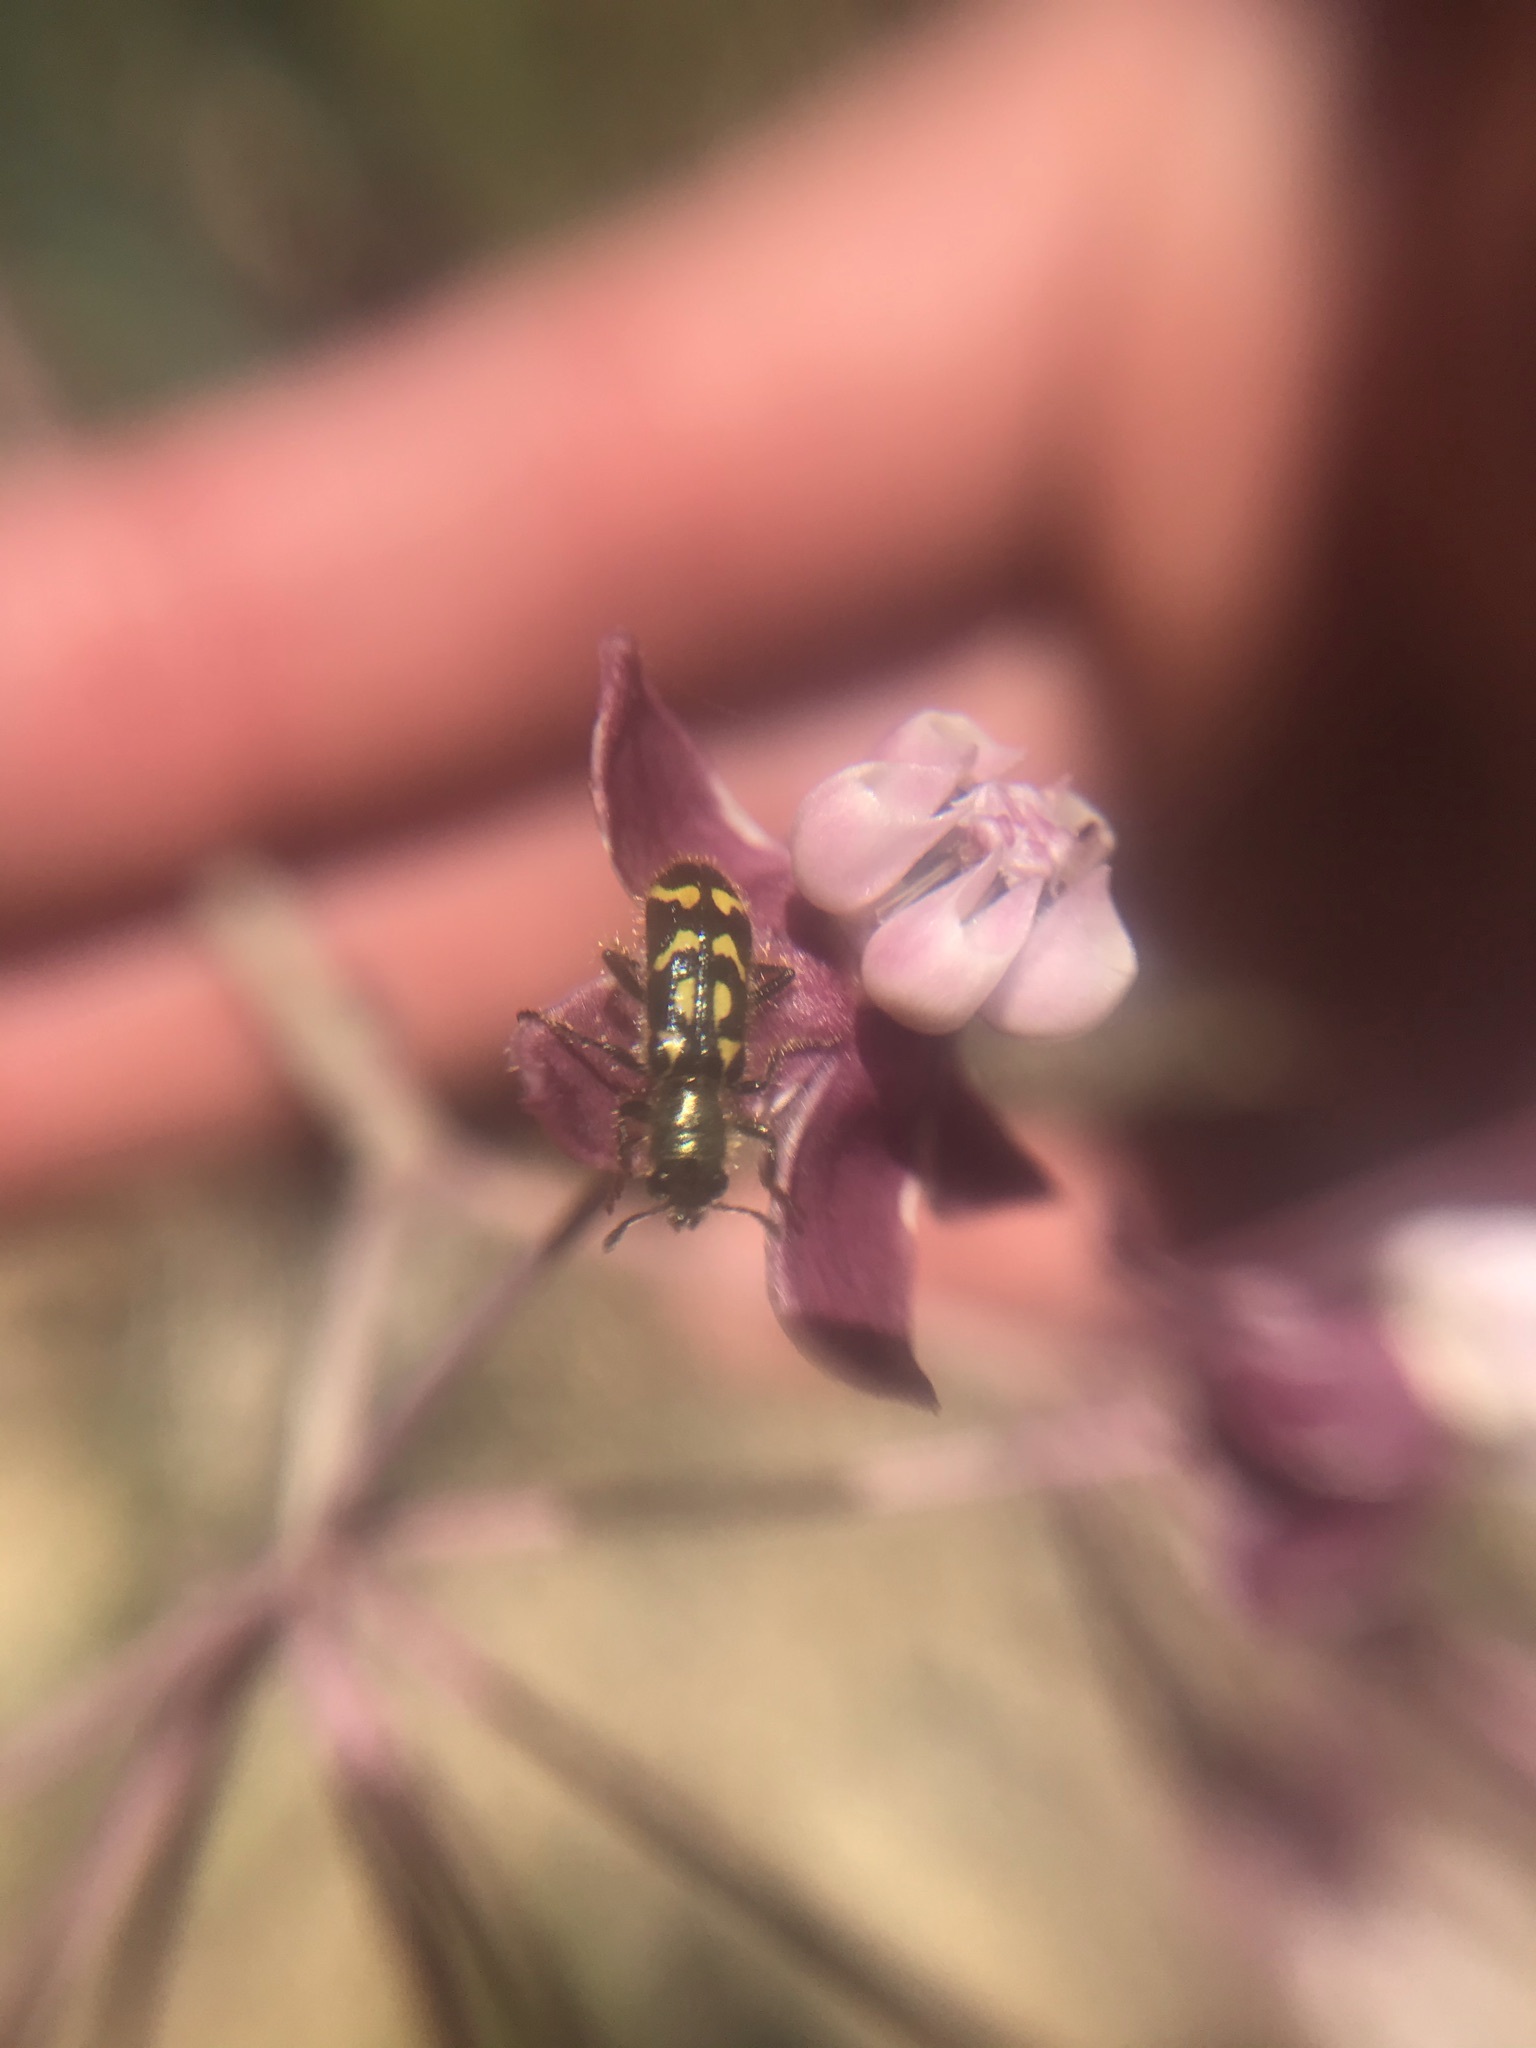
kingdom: Animalia
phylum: Arthropoda
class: Insecta
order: Coleoptera
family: Cleridae
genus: Trichodes
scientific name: Trichodes ornatus
